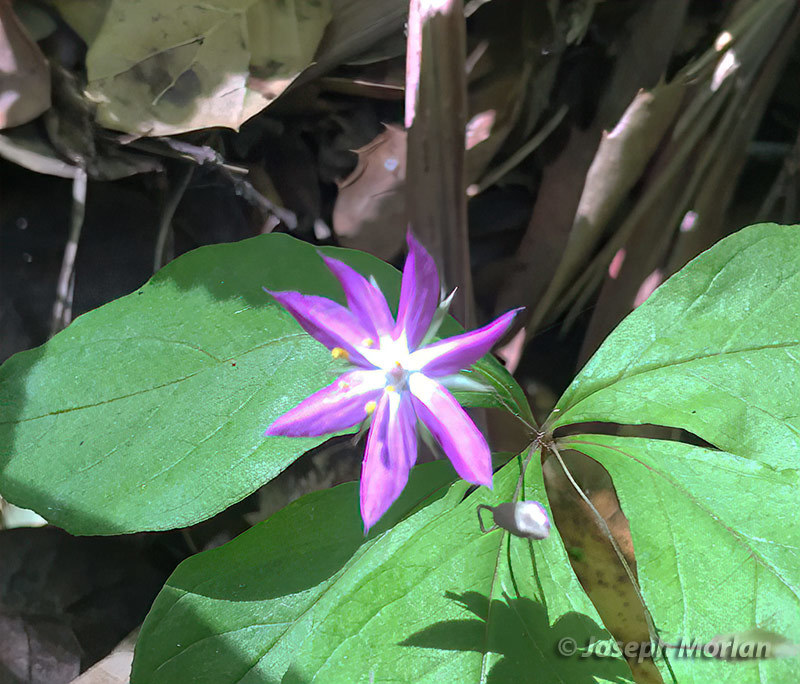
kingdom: Plantae
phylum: Tracheophyta
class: Magnoliopsida
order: Ericales
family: Primulaceae
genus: Lysimachia
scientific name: Lysimachia latifolia
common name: Pacific starflower
